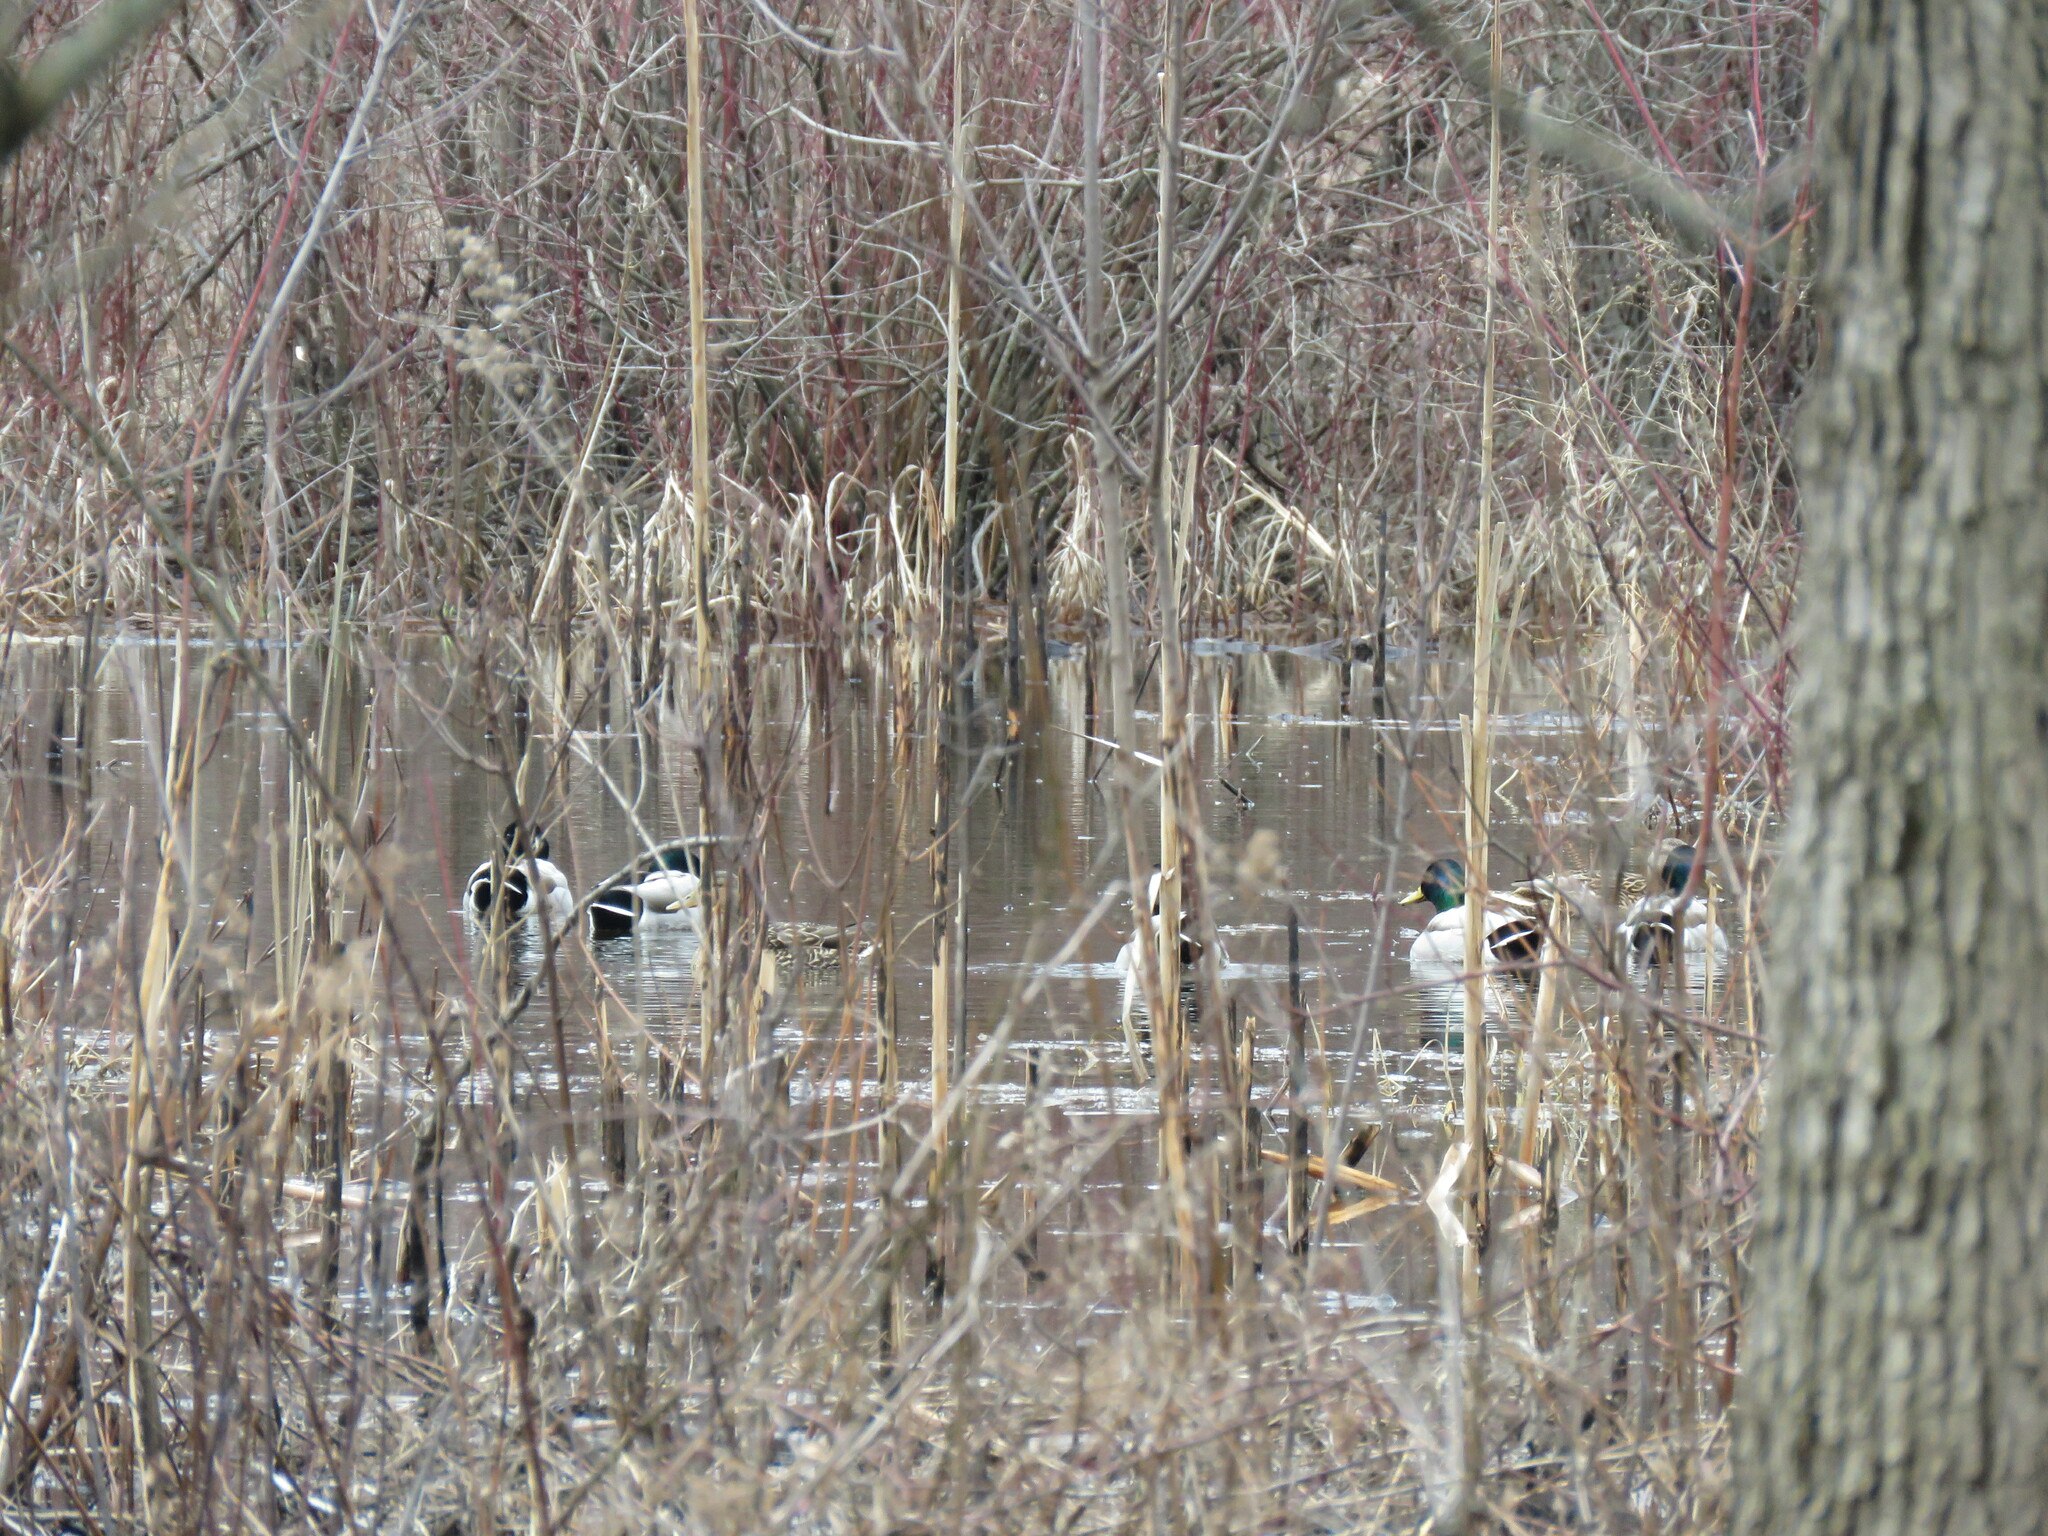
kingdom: Animalia
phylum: Chordata
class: Aves
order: Anseriformes
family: Anatidae
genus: Anas
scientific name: Anas platyrhynchos
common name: Mallard
